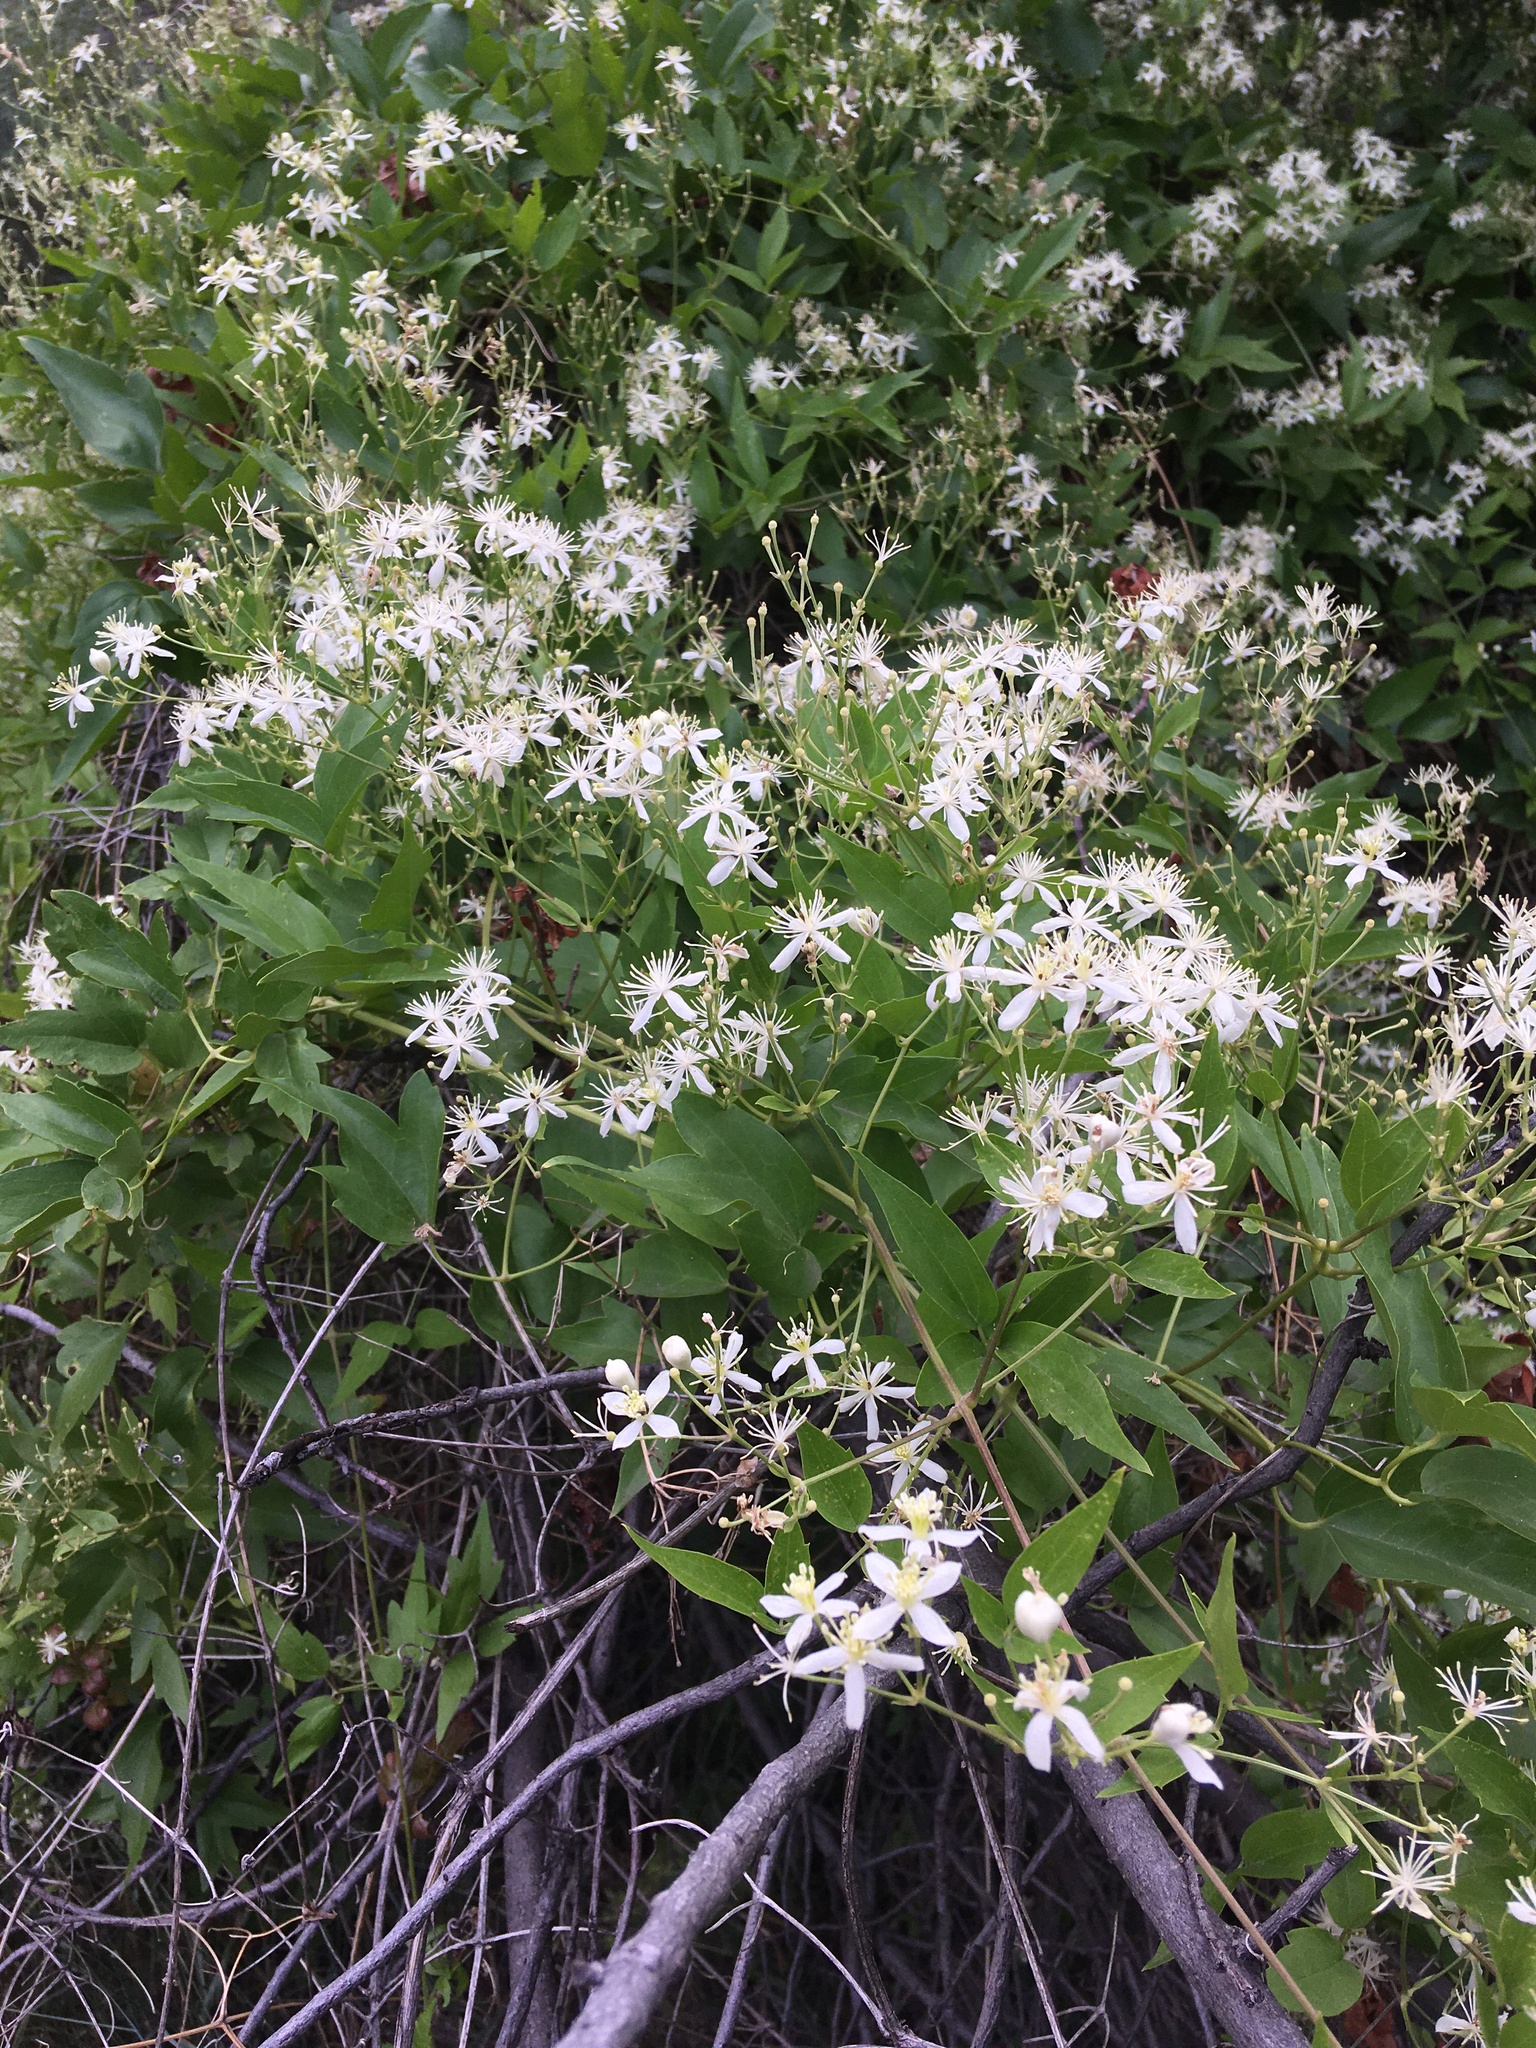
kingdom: Plantae
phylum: Tracheophyta
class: Magnoliopsida
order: Ranunculales
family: Ranunculaceae
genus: Clematis
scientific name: Clematis ligusticifolia
